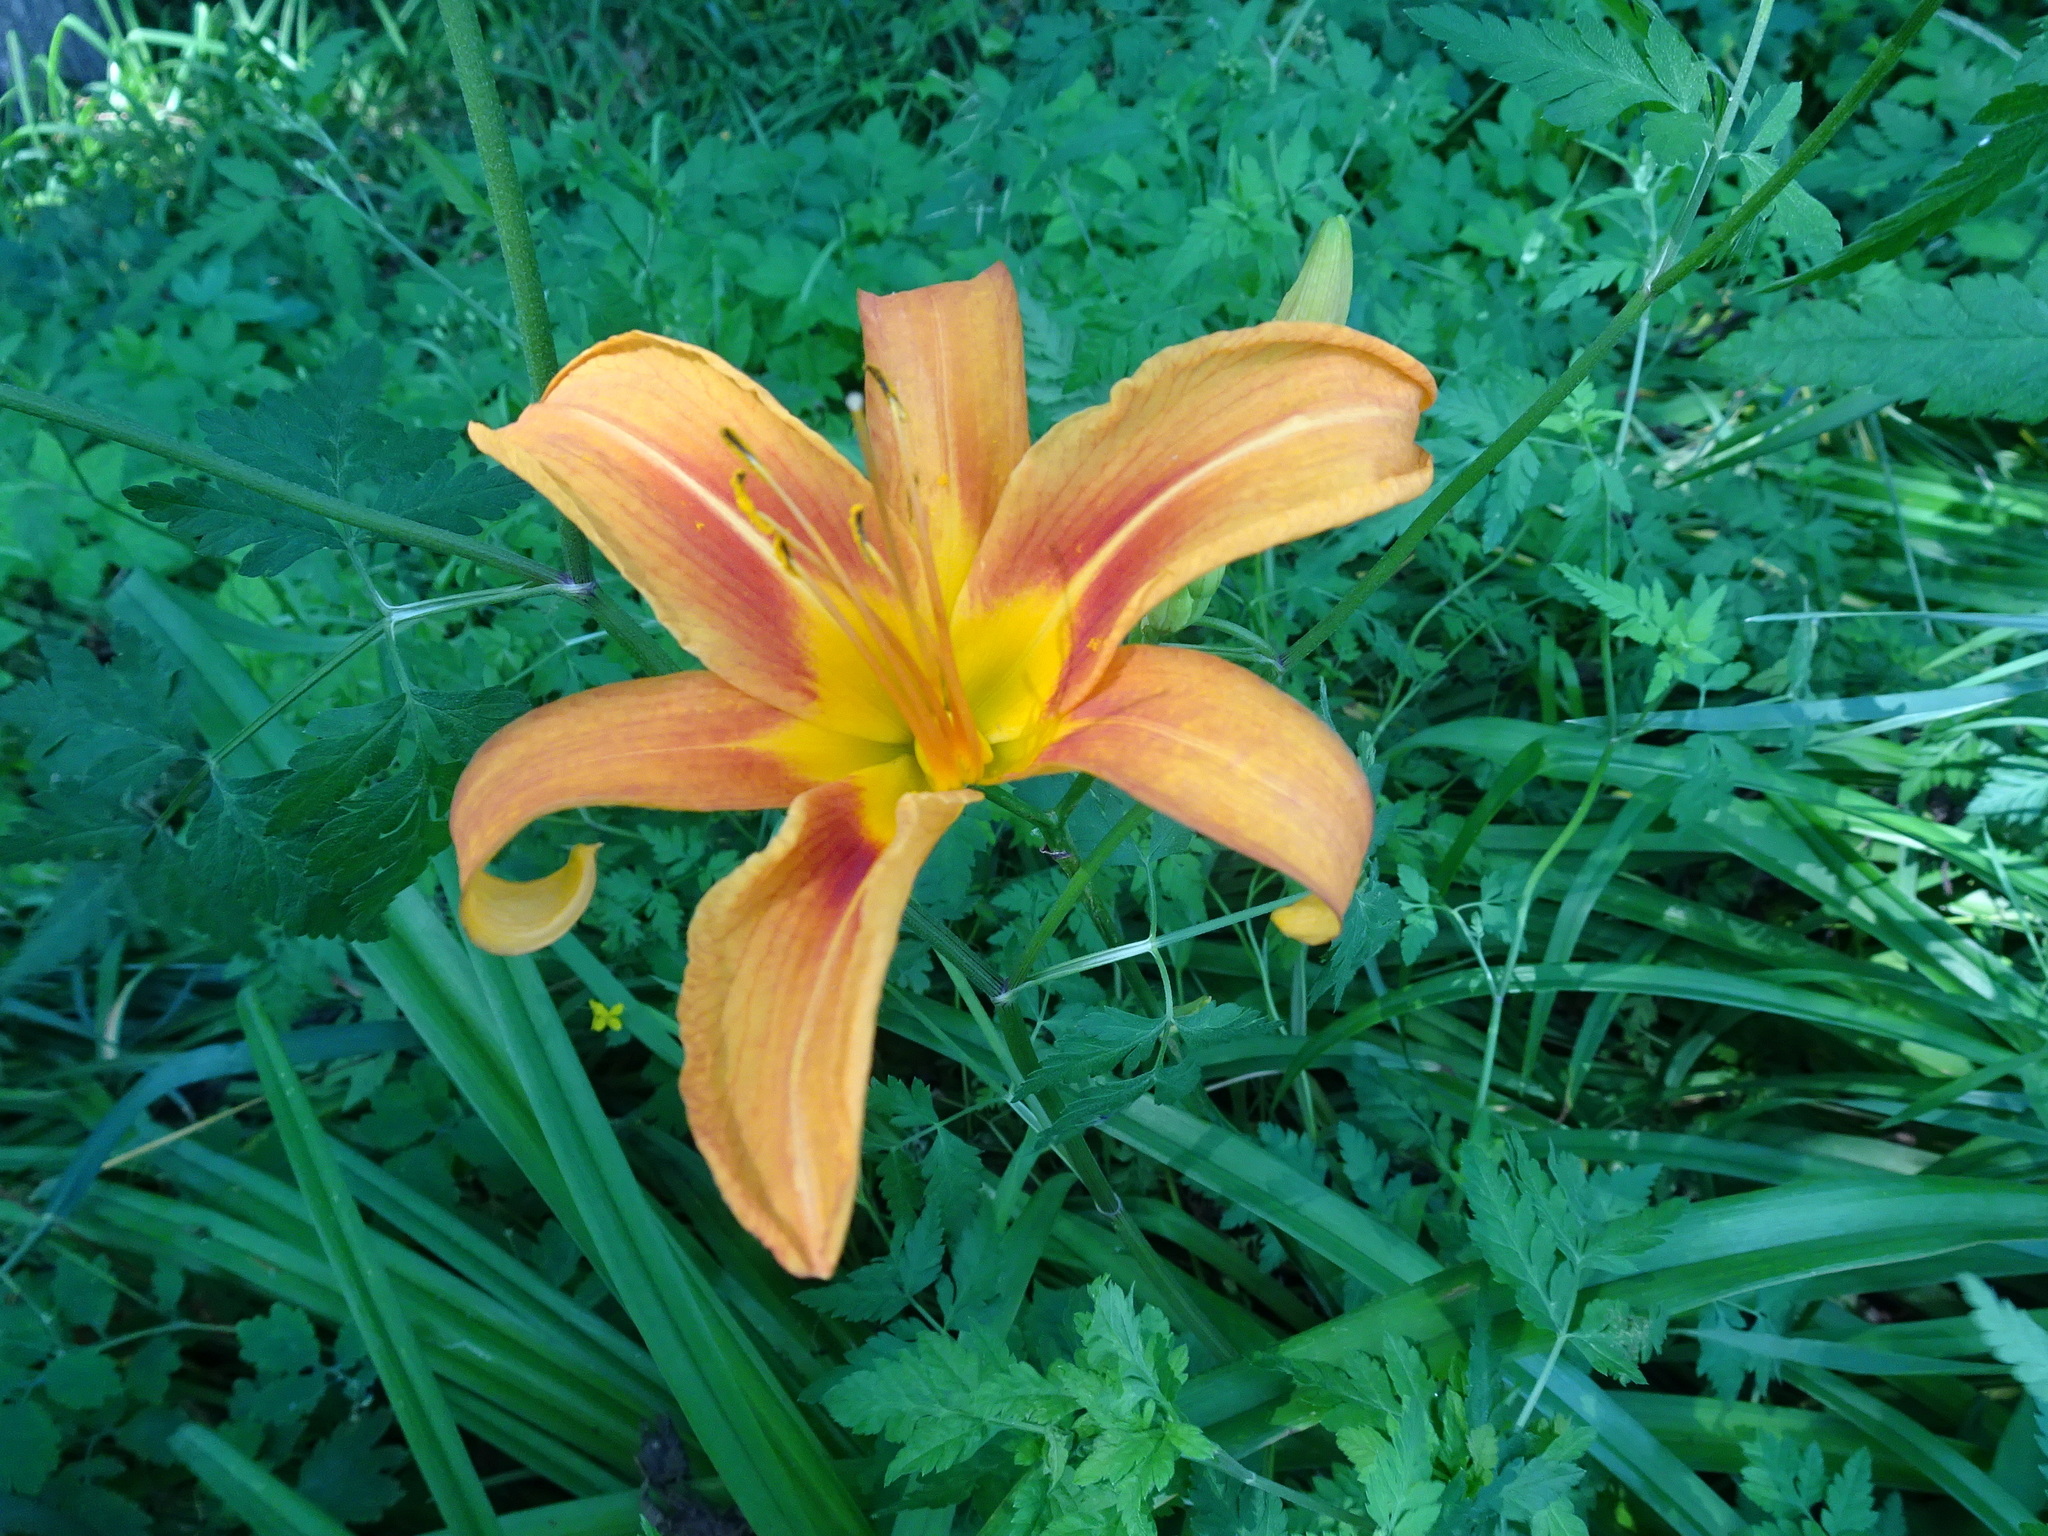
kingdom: Plantae
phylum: Tracheophyta
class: Liliopsida
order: Asparagales
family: Asphodelaceae
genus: Hemerocallis
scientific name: Hemerocallis fulva
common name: Orange day-lily
